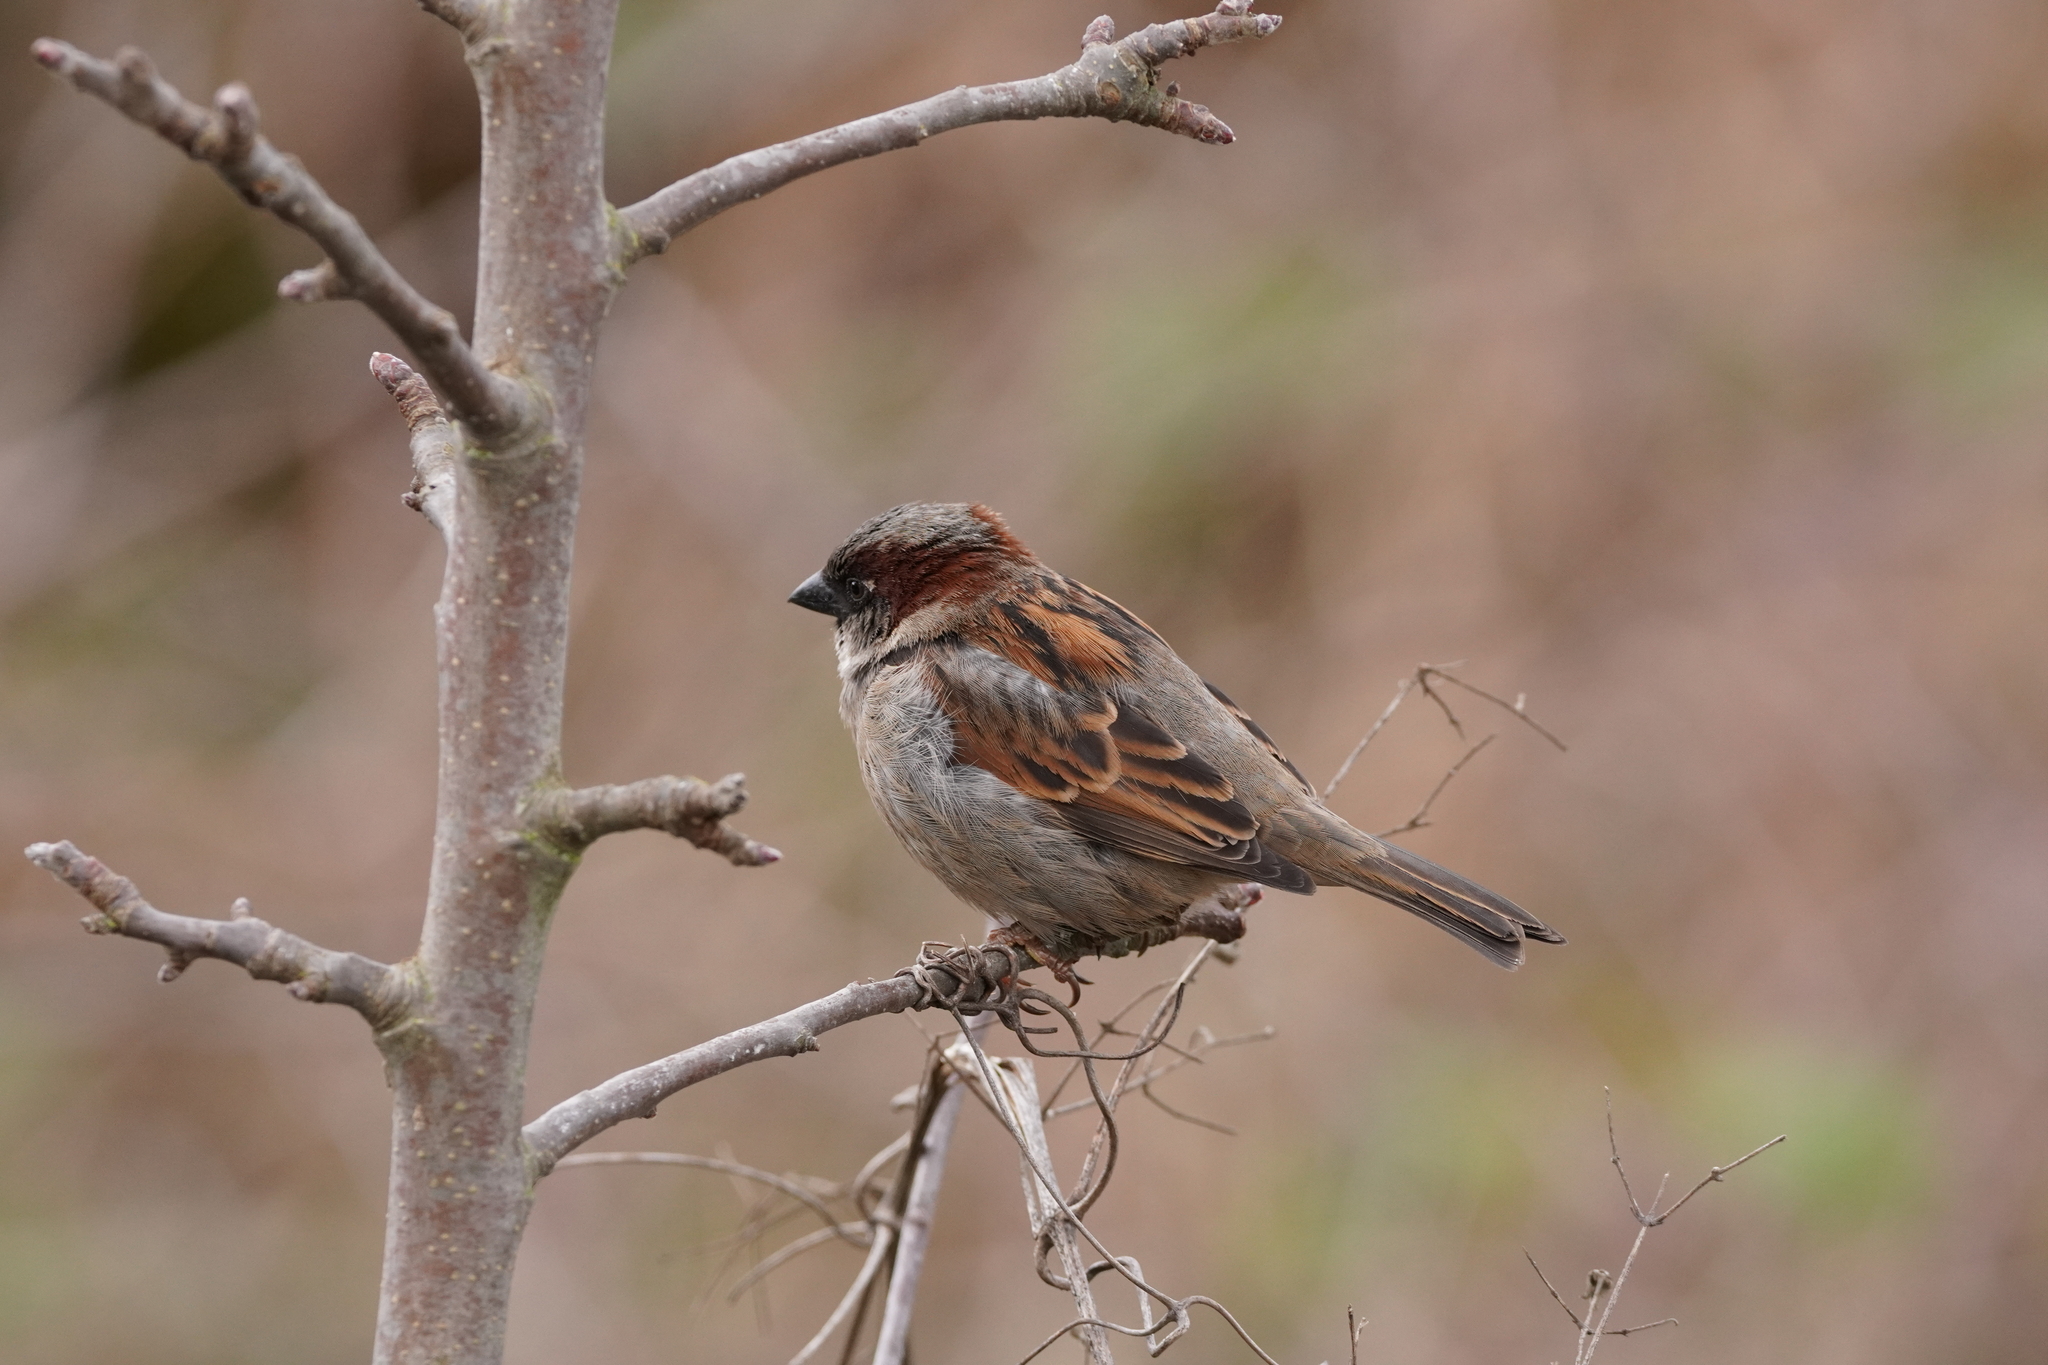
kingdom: Animalia
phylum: Chordata
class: Aves
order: Passeriformes
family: Passeridae
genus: Passer
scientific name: Passer domesticus
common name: House sparrow
